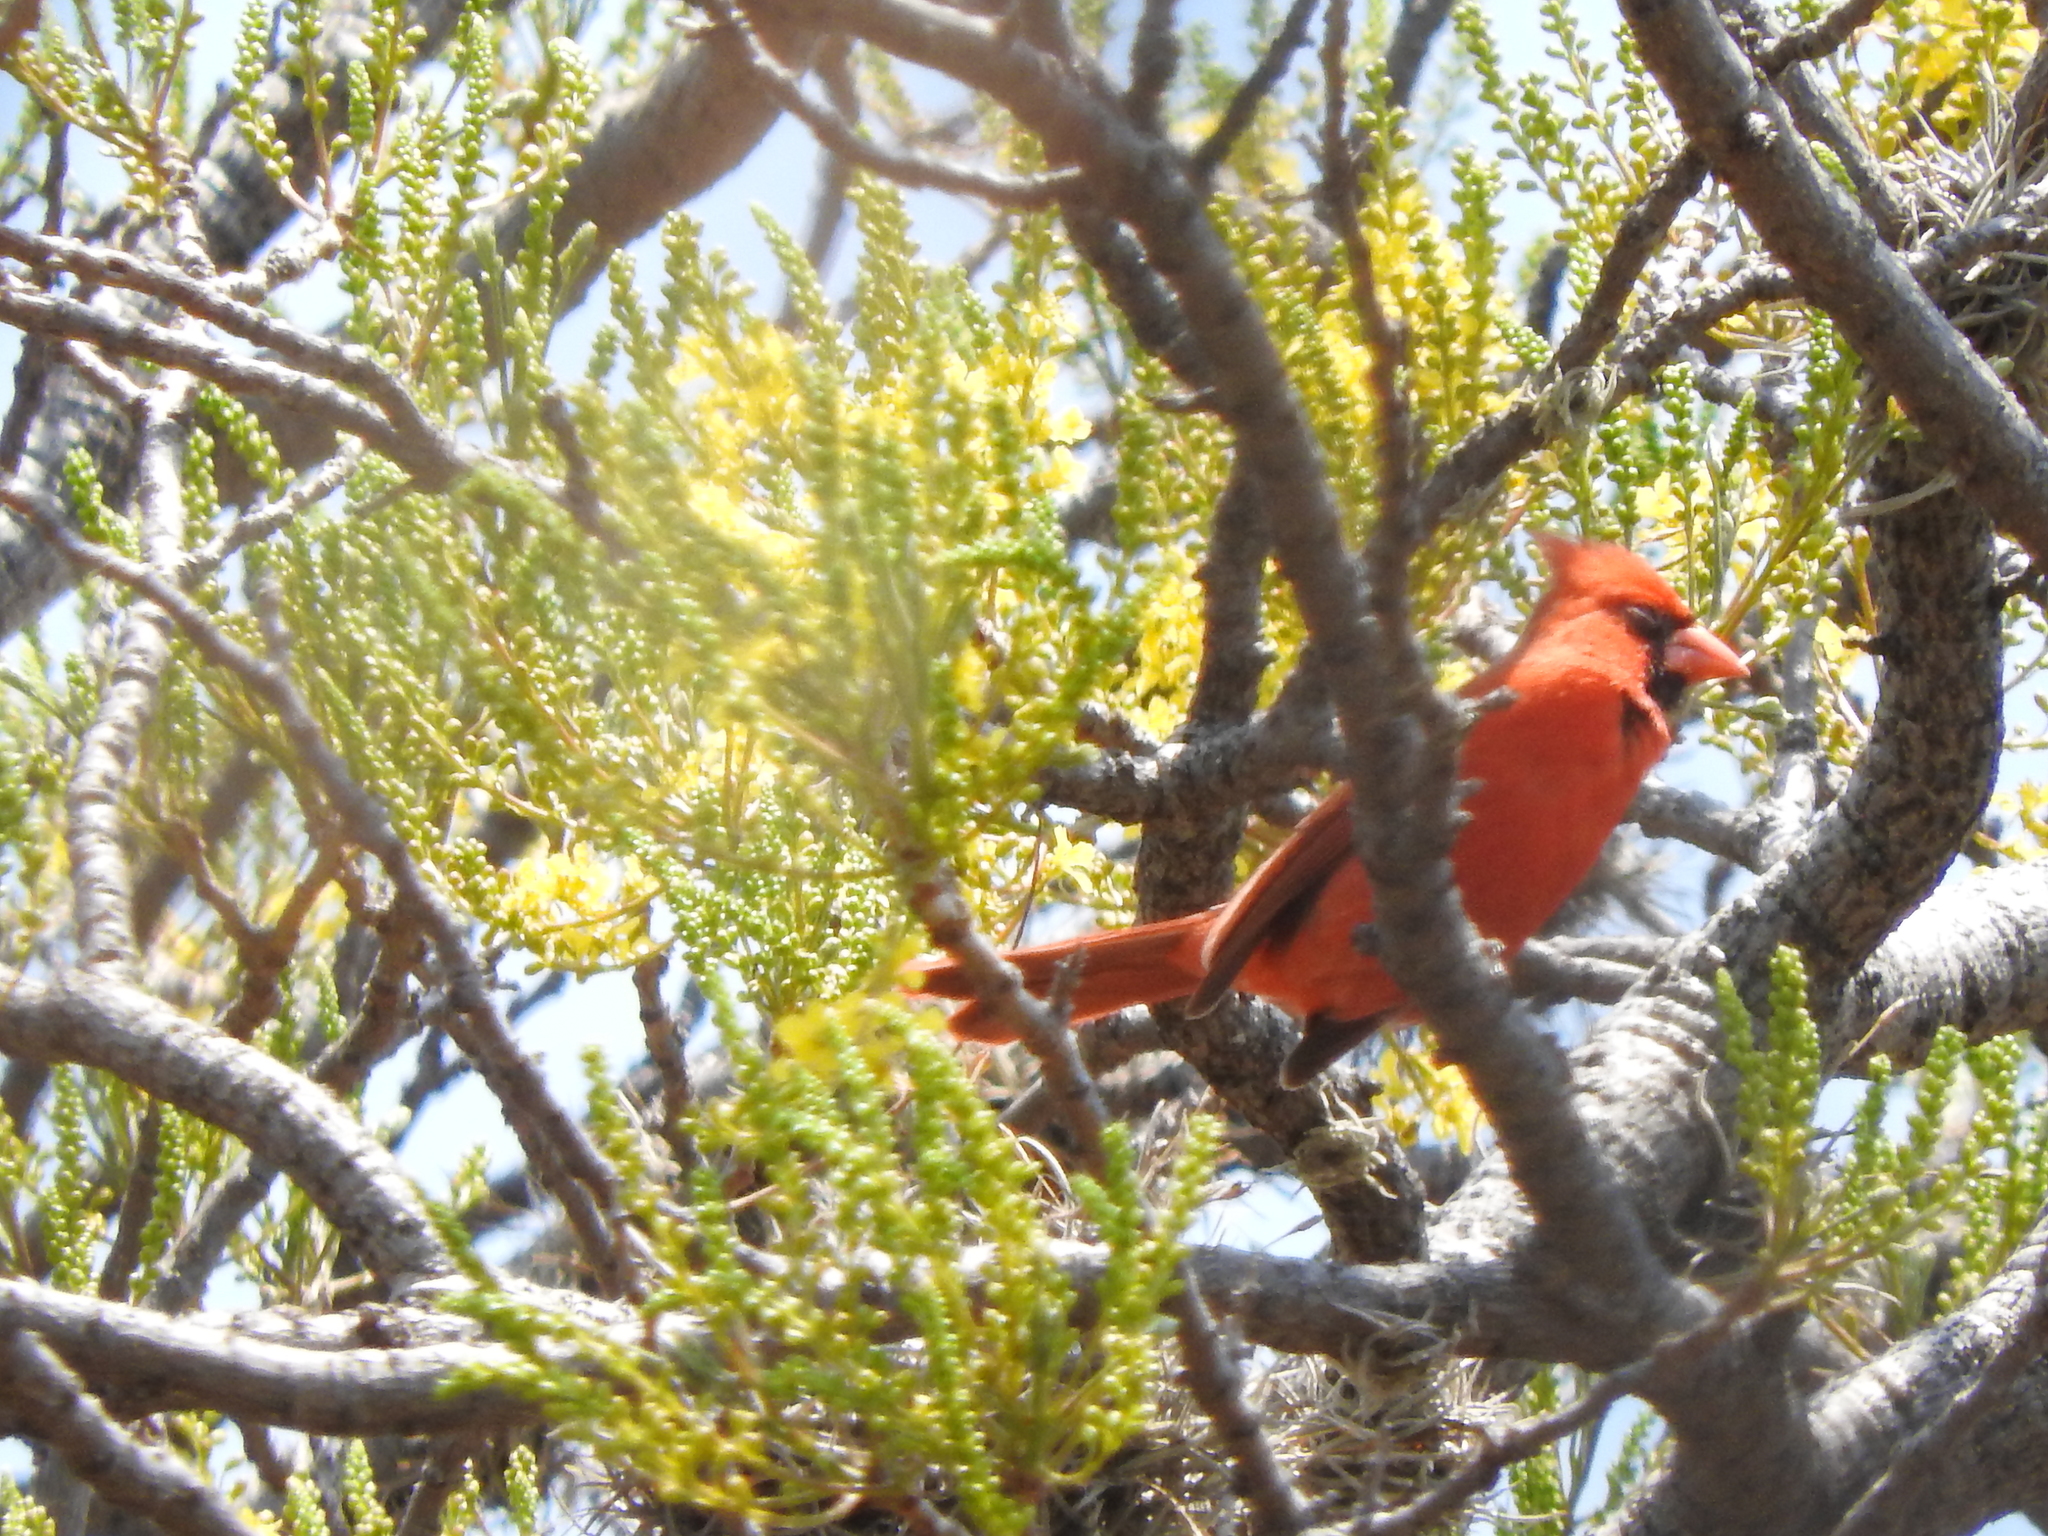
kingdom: Animalia
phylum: Chordata
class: Aves
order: Passeriformes
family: Cardinalidae
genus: Cardinalis
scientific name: Cardinalis cardinalis
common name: Northern cardinal
